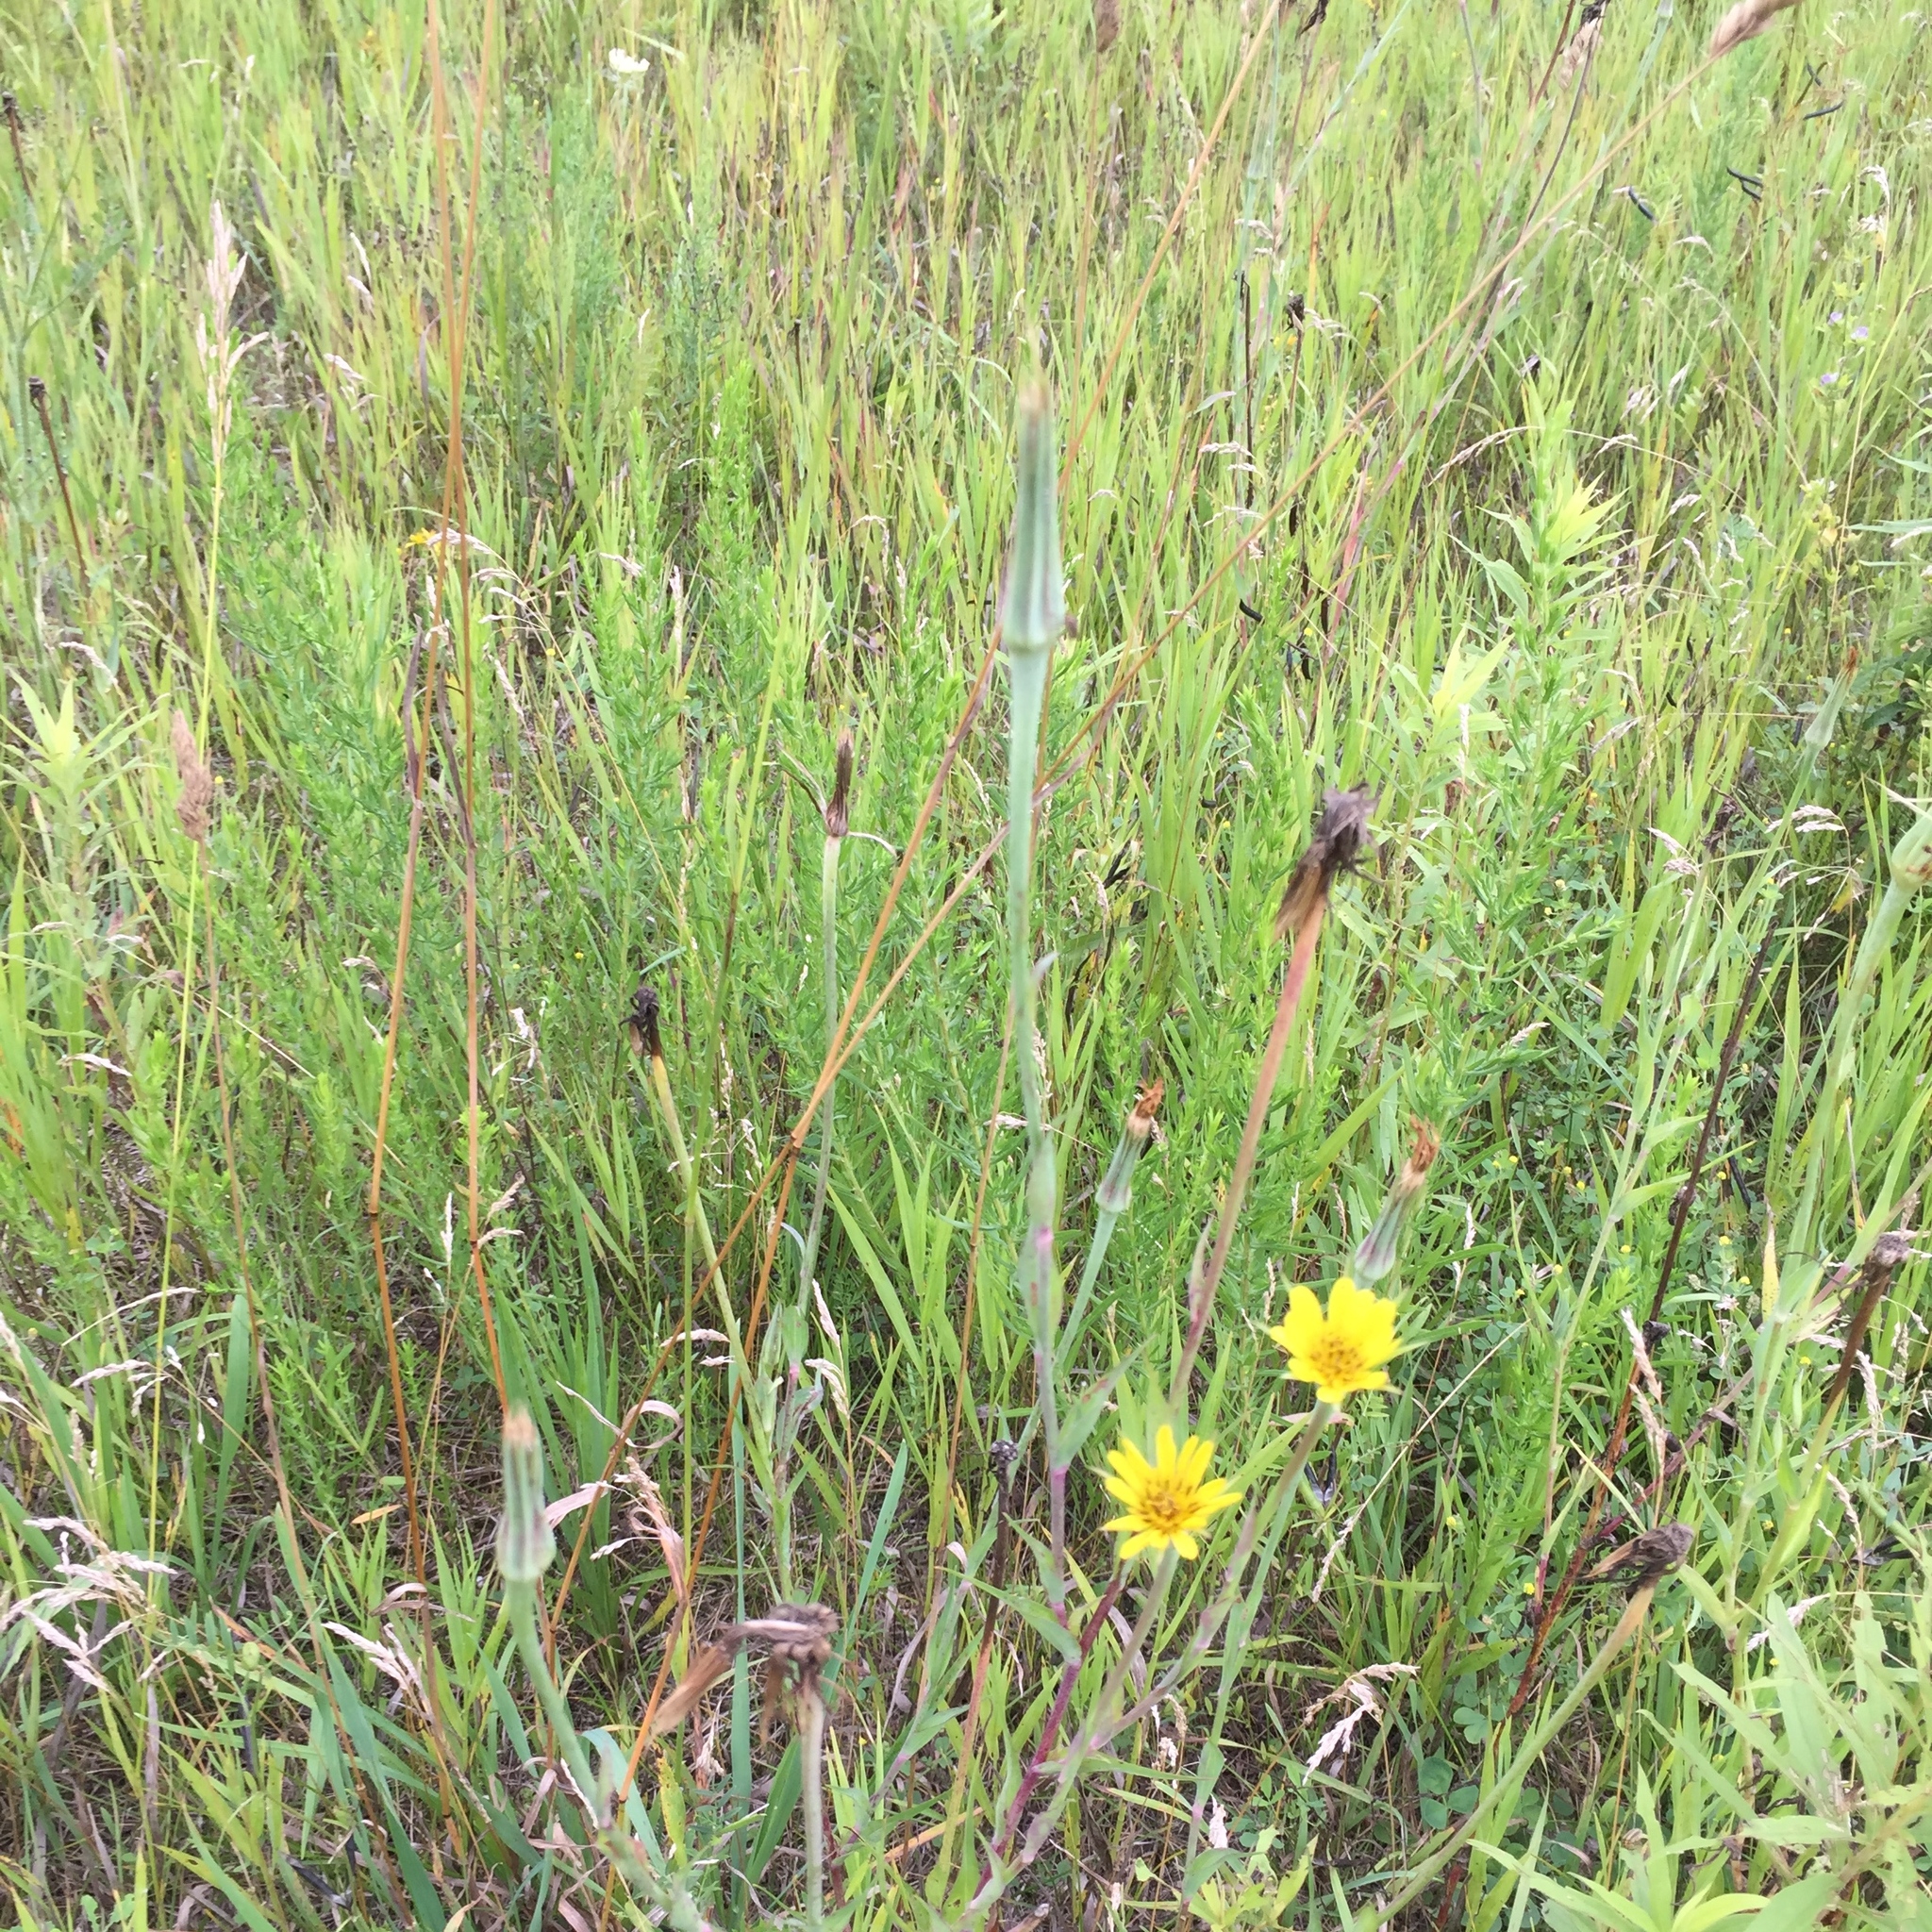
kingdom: Plantae
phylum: Tracheophyta
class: Magnoliopsida
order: Asterales
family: Asteraceae
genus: Tragopogon
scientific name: Tragopogon dubius
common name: Yellow salsify
